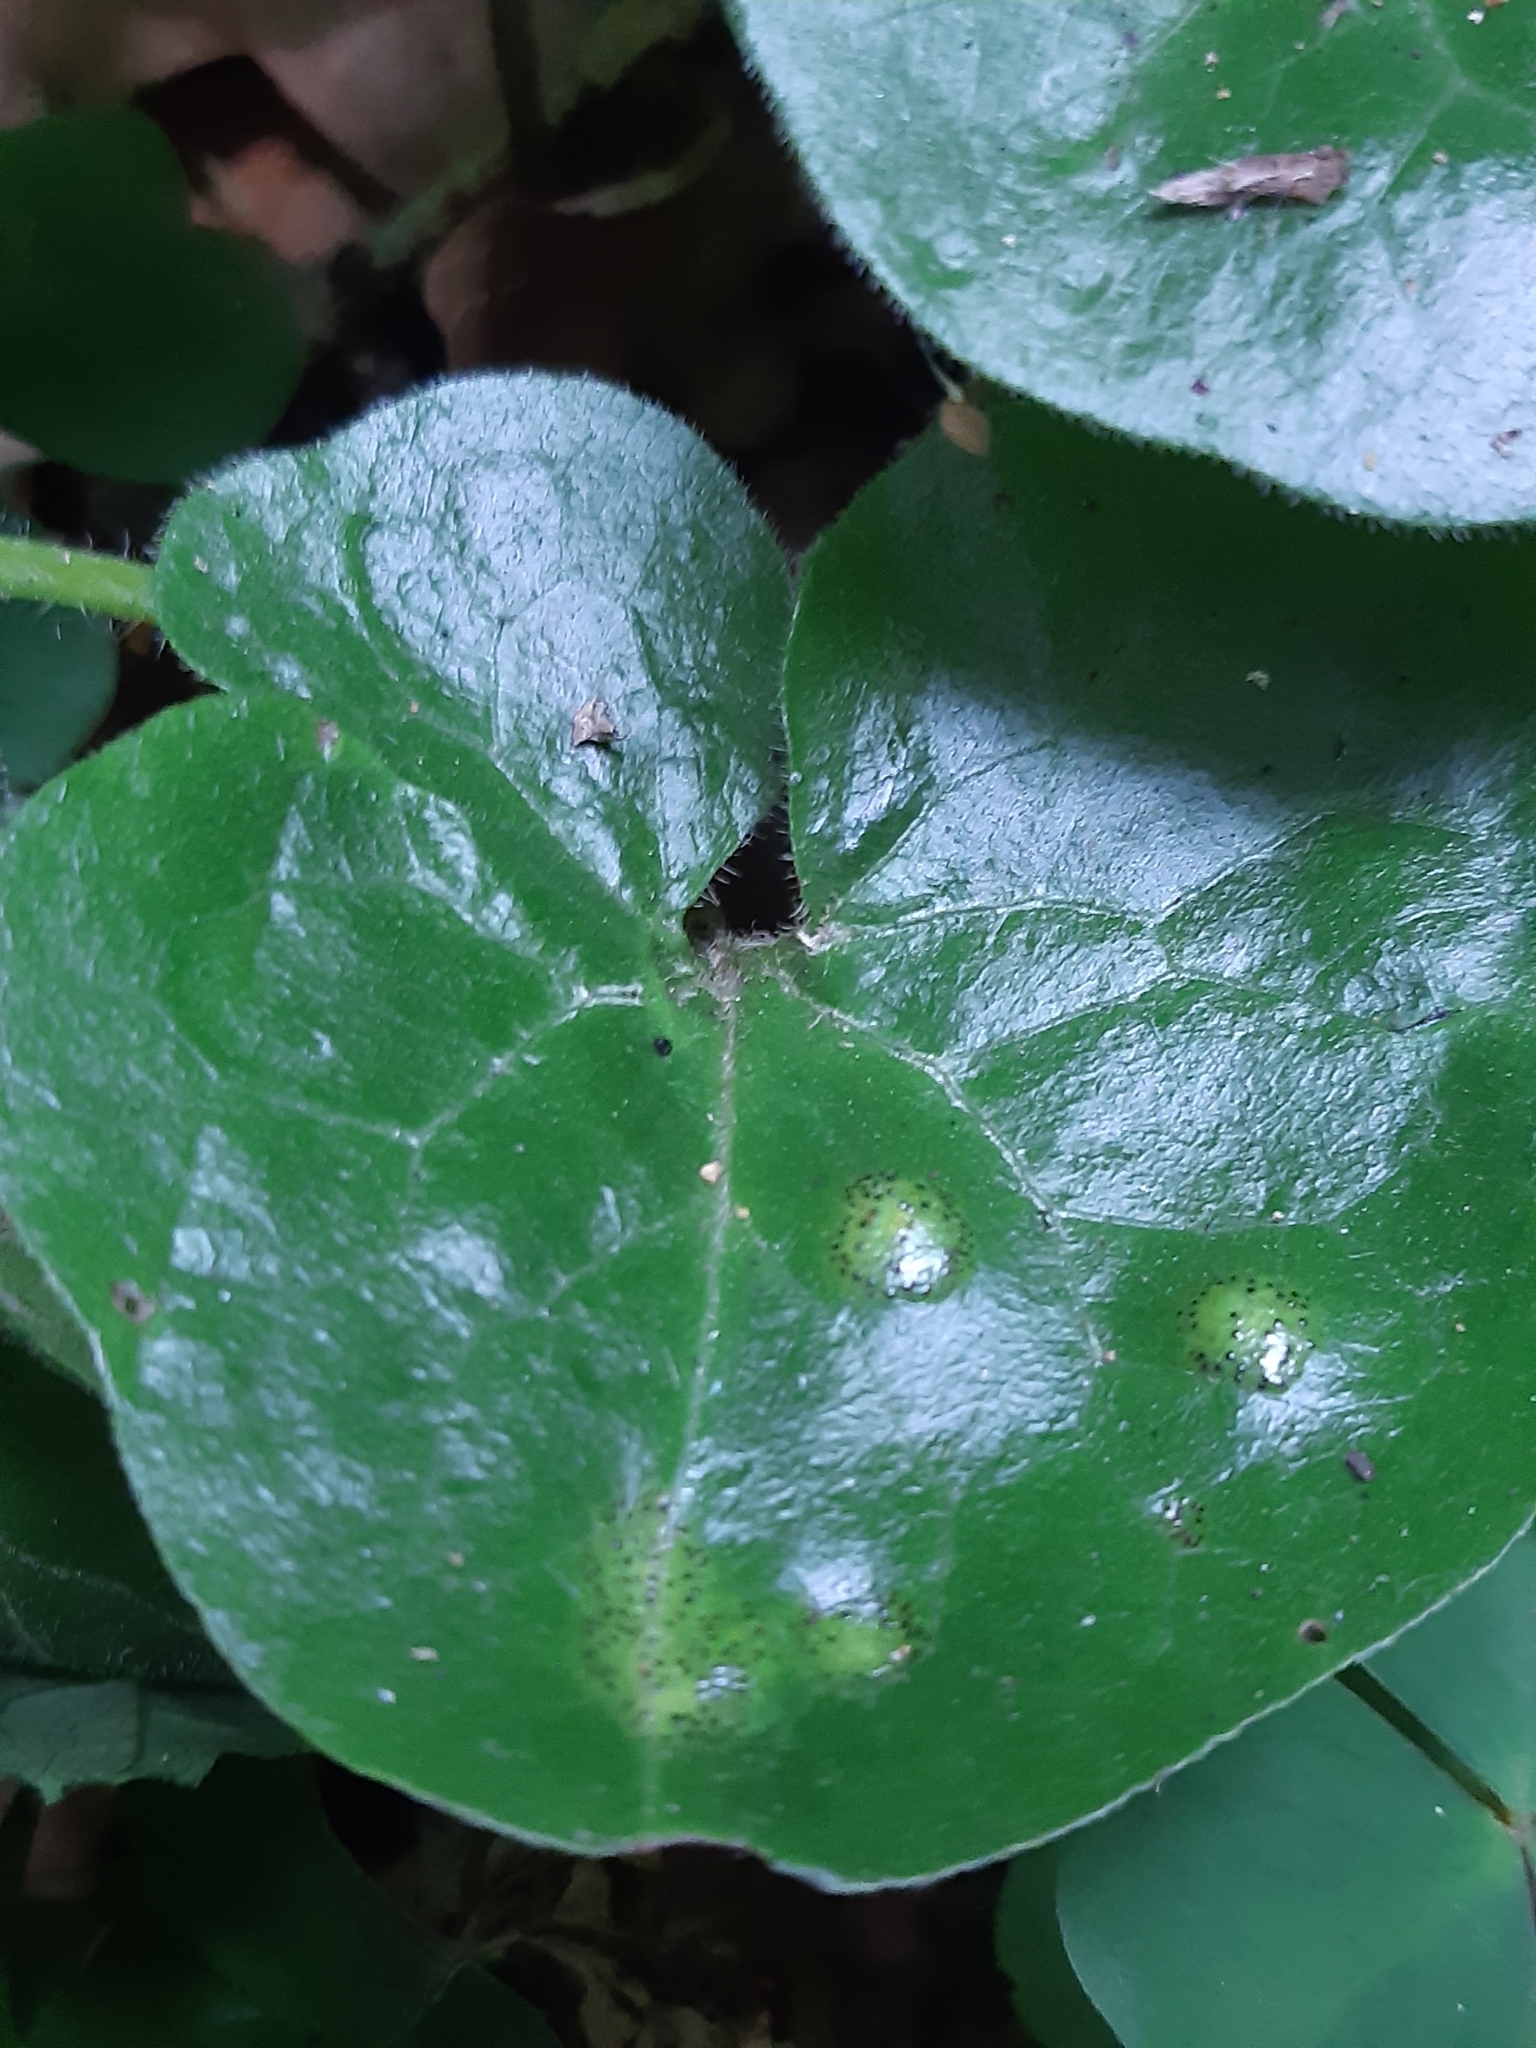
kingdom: Fungi
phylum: Basidiomycota
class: Pucciniomycetes
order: Pucciniales
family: Pucciniaceae
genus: Puccinia
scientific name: Puccinia asarina
